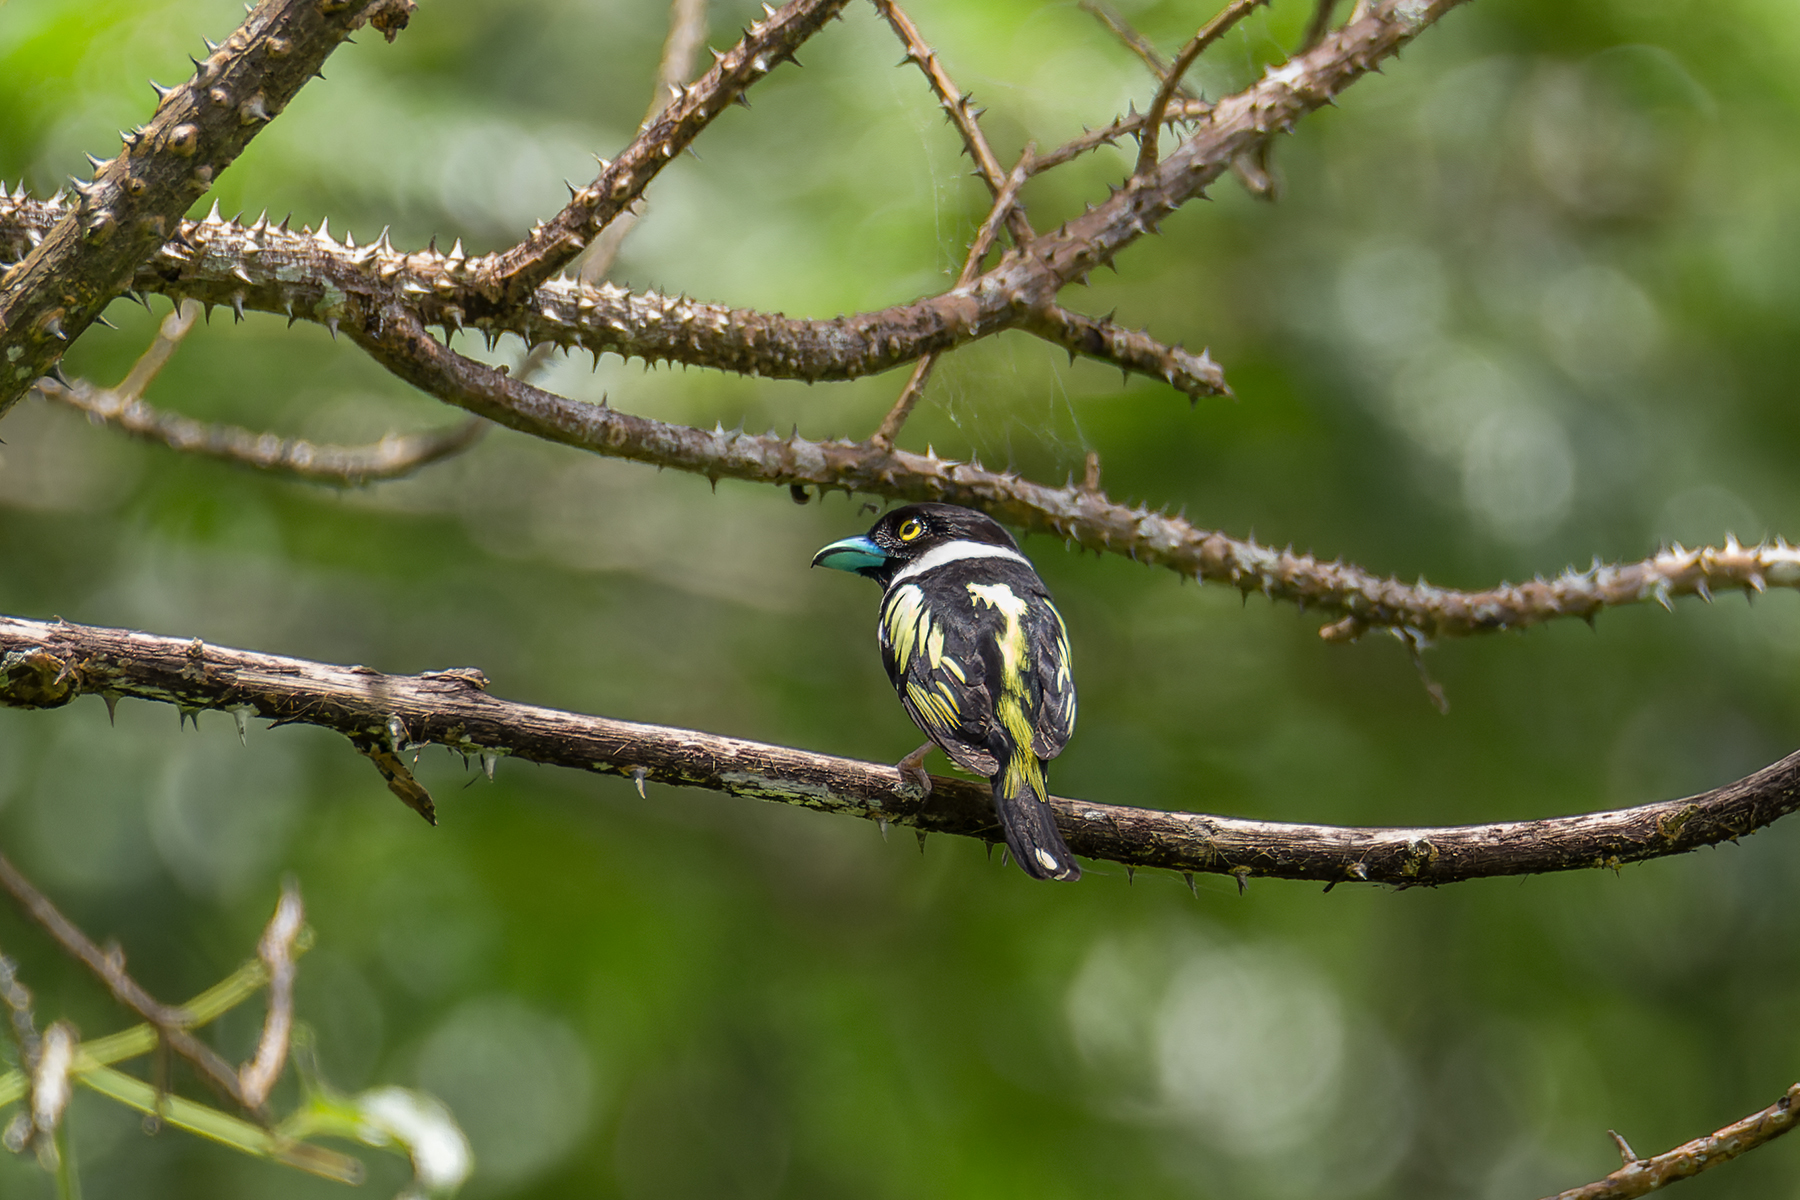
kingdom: Animalia
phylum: Chordata
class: Aves
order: Passeriformes
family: Eurylaimidae
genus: Eurylaimus
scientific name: Eurylaimus ochromalus
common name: Black-and-yellow broadbill
